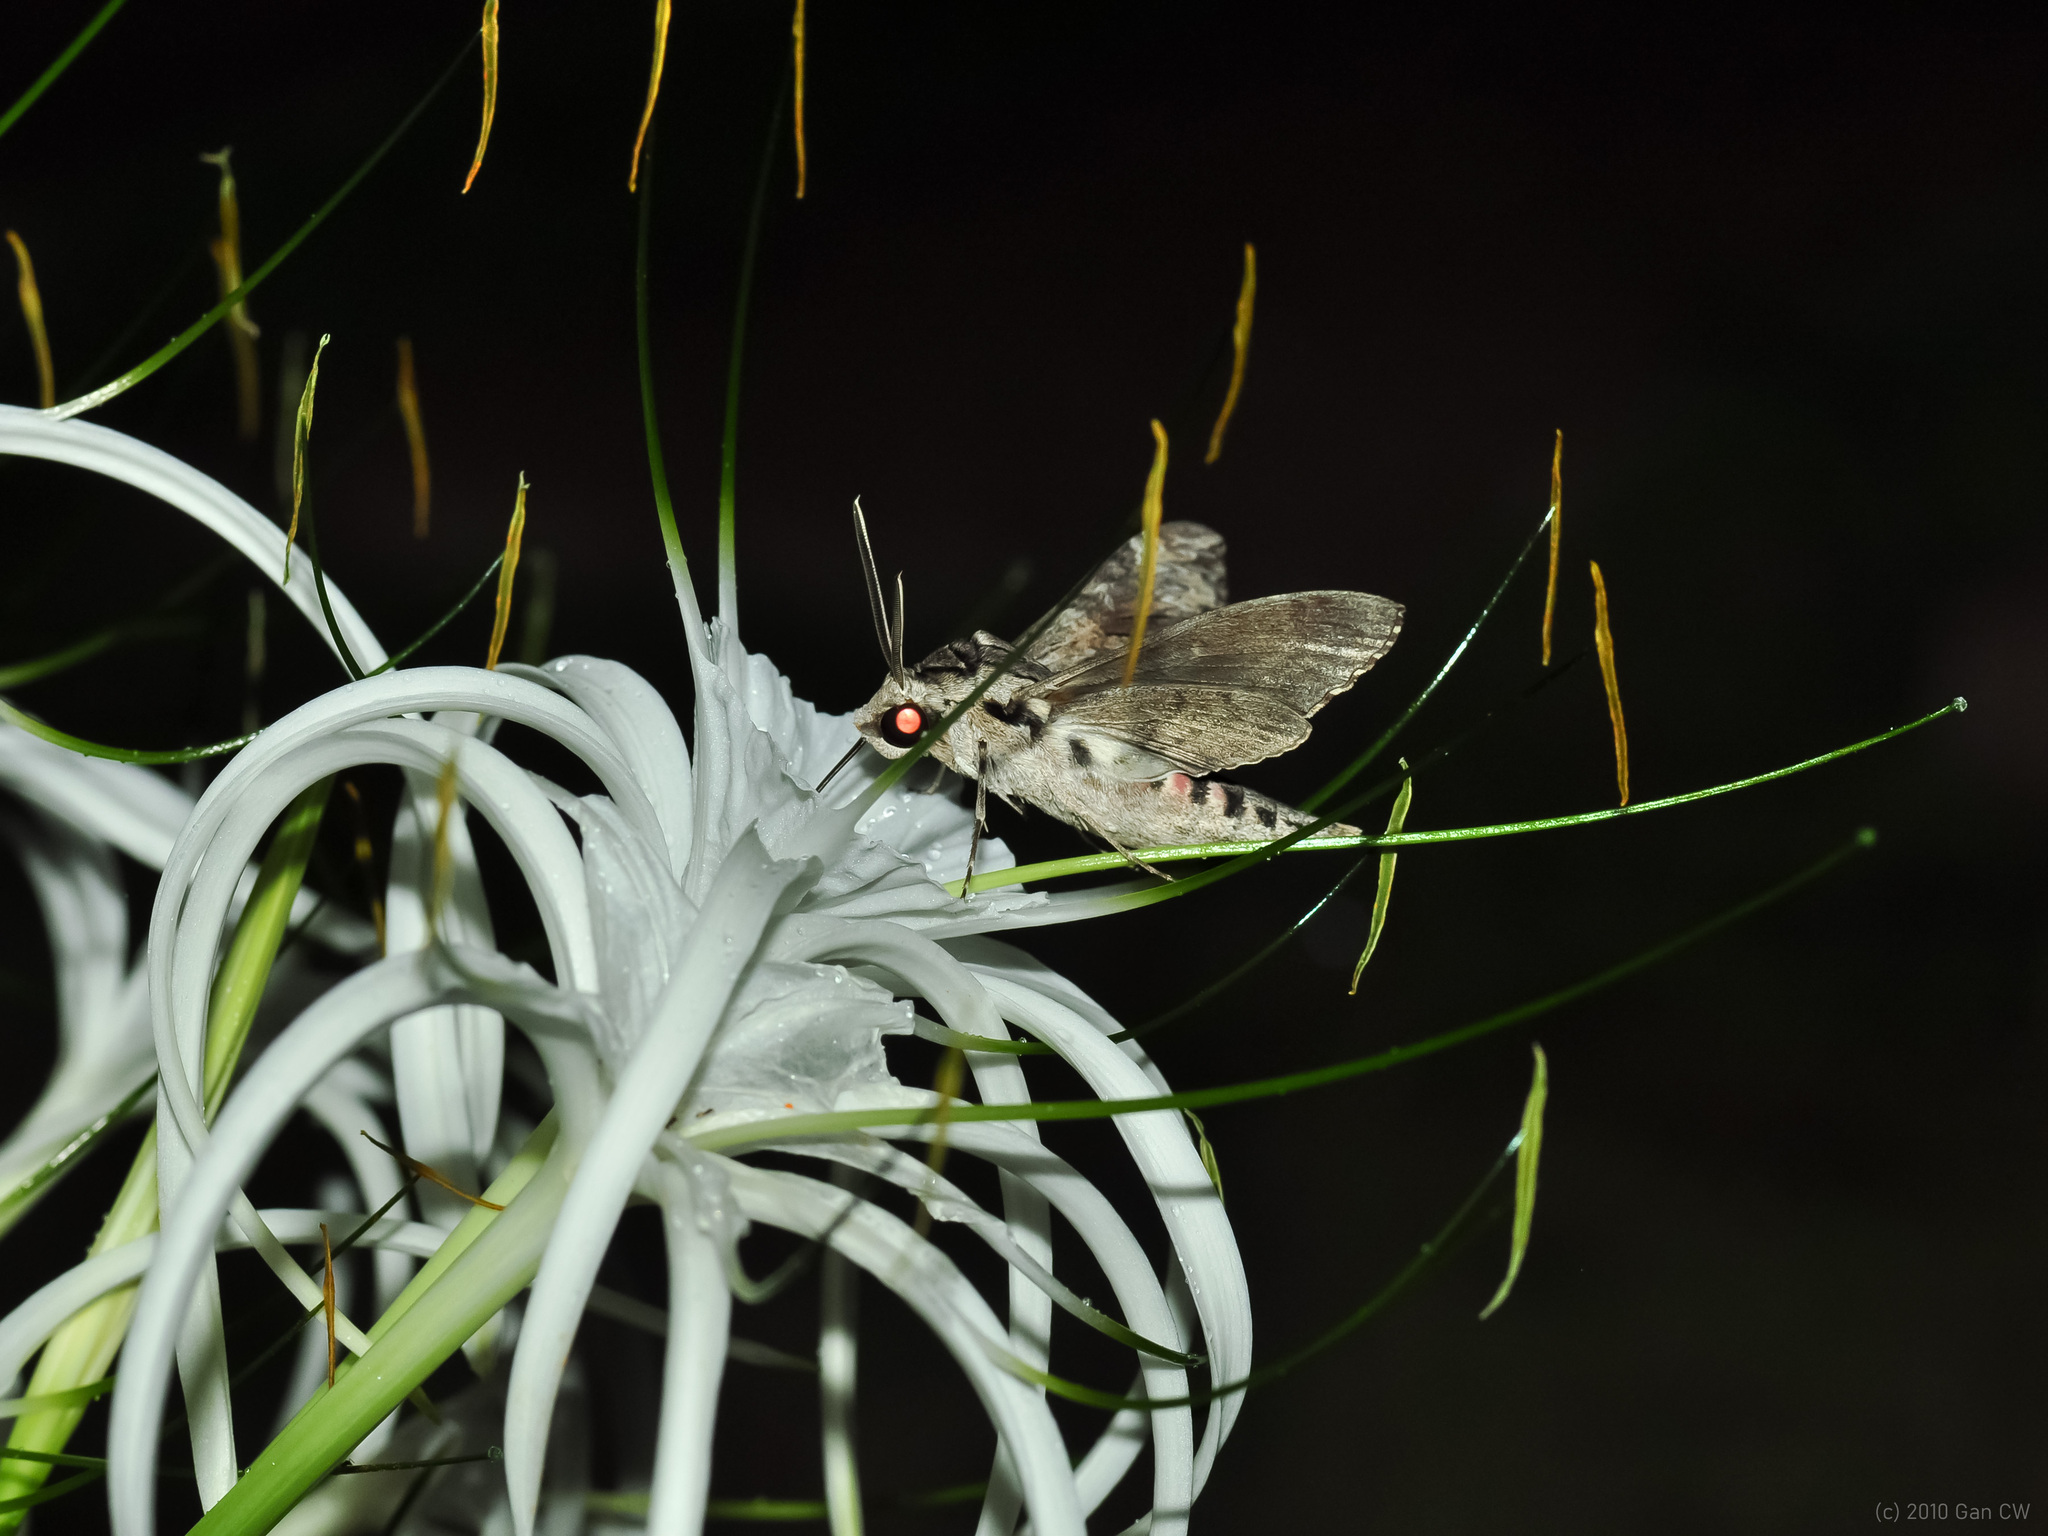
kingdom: Animalia
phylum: Arthropoda
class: Insecta
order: Lepidoptera
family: Sphingidae
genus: Agrius
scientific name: Agrius convolvuli
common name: Convolvulus hawkmoth
